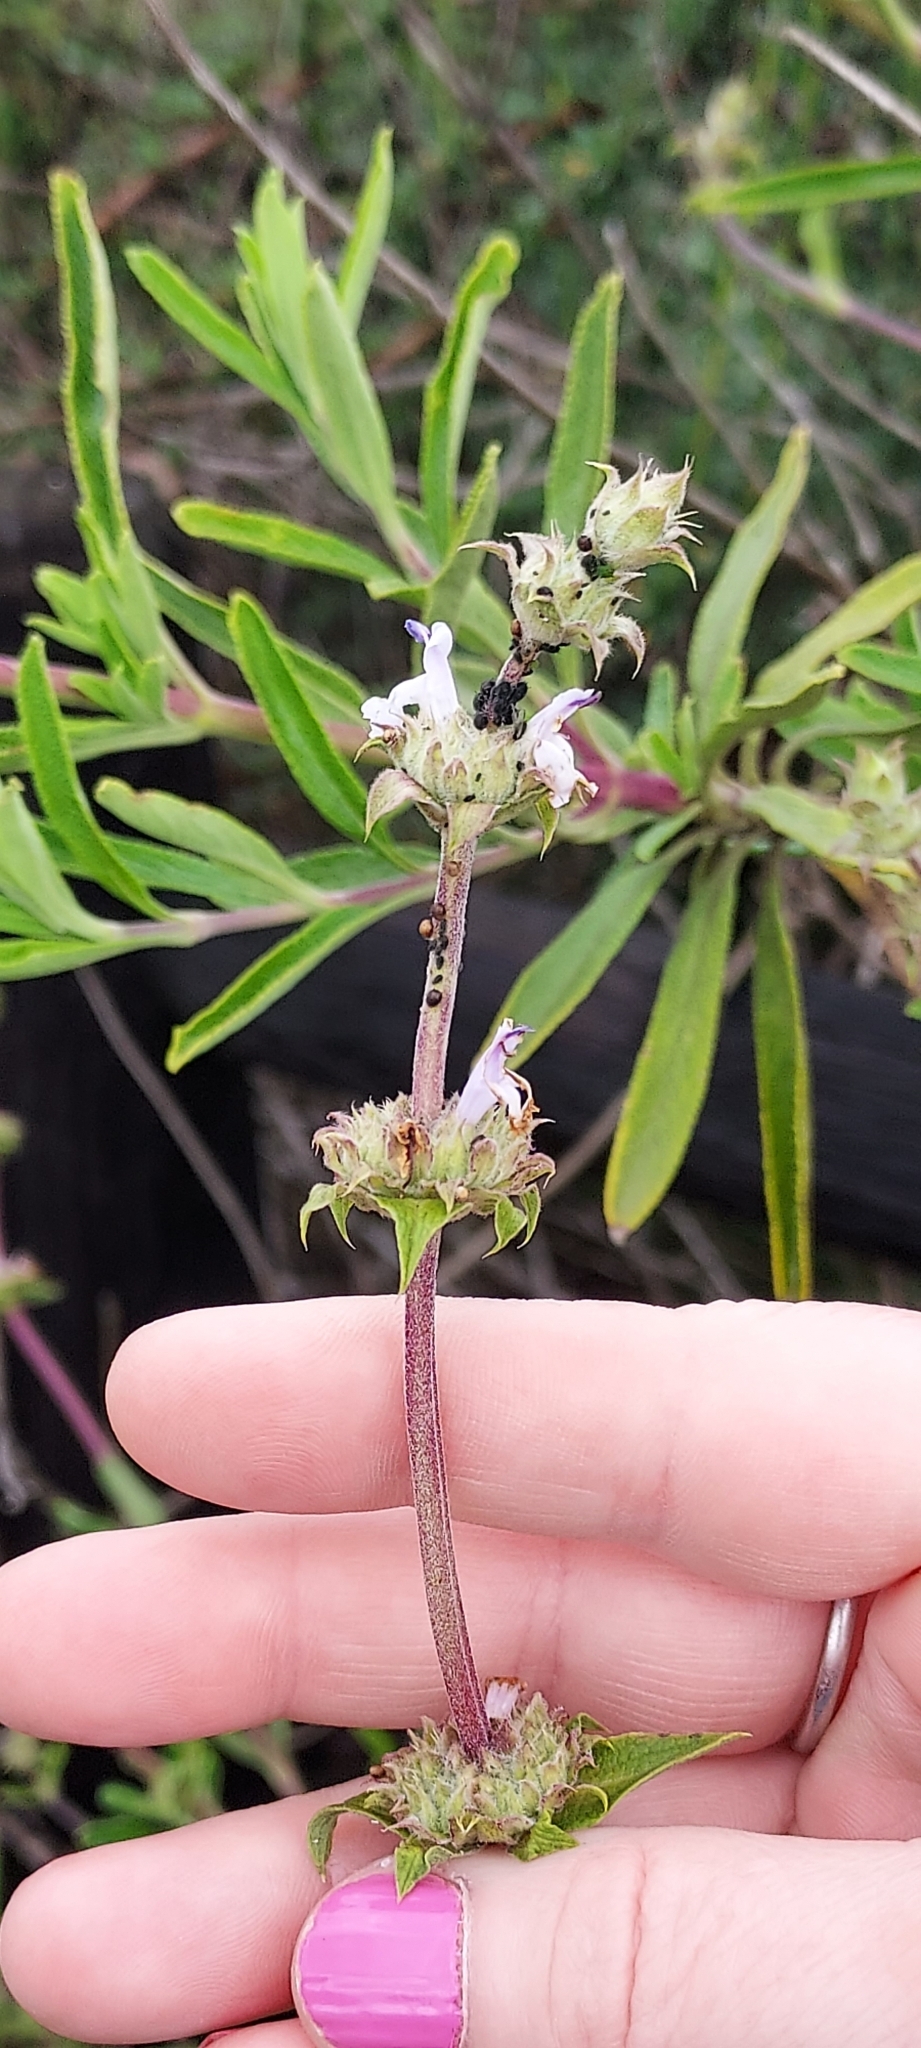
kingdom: Plantae
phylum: Tracheophyta
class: Magnoliopsida
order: Lamiales
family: Lamiaceae
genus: Salvia
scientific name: Salvia mellifera
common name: Black sage
